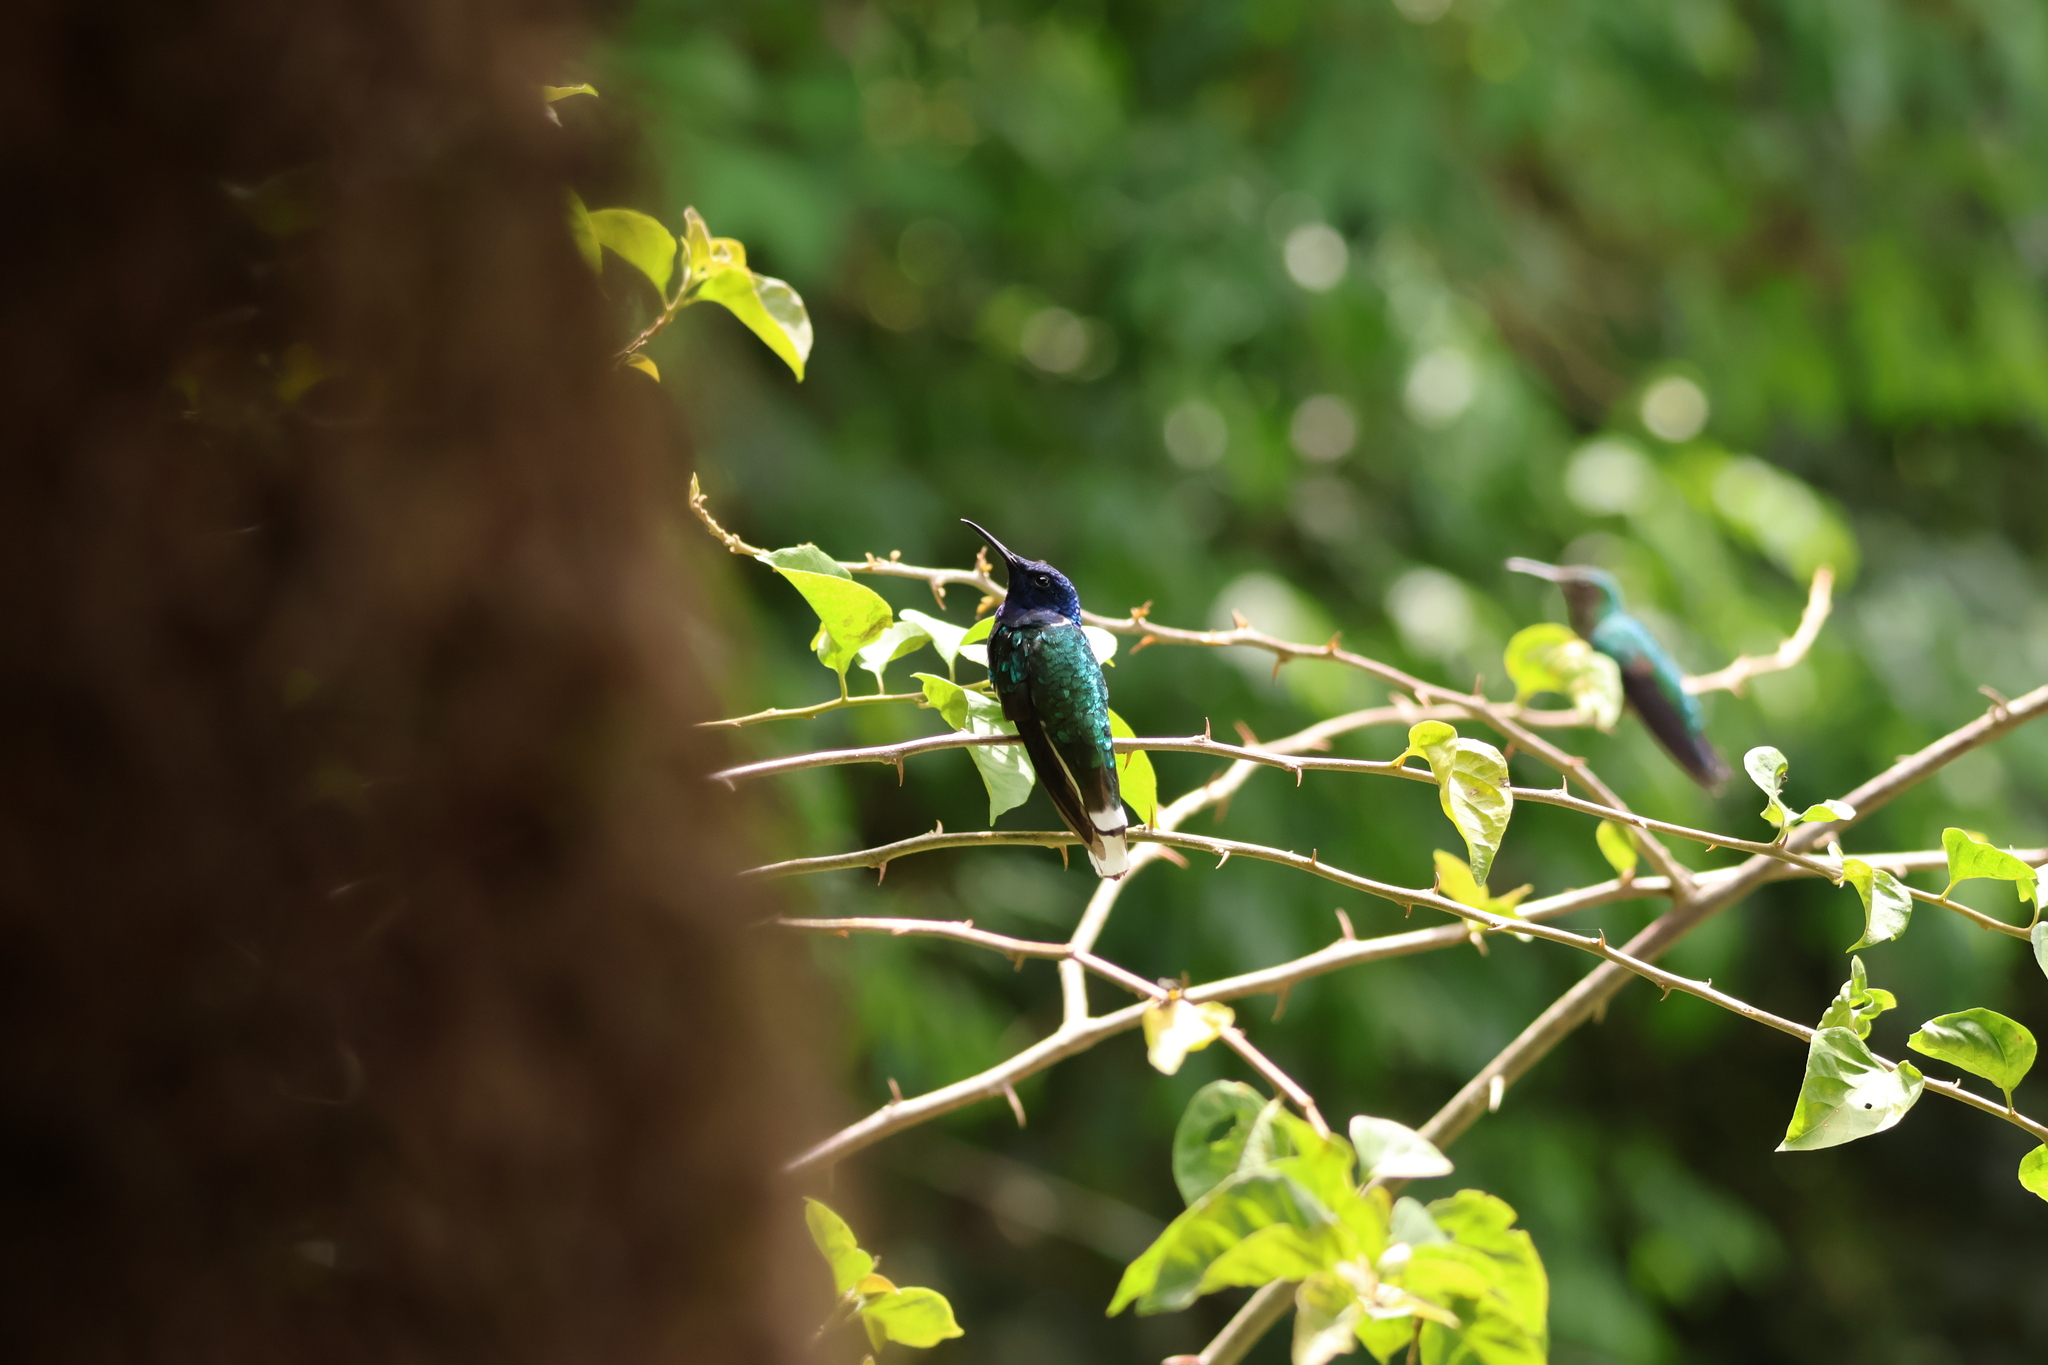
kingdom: Animalia
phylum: Chordata
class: Aves
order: Apodiformes
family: Trochilidae
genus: Florisuga
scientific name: Florisuga mellivora
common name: White-necked jacobin
